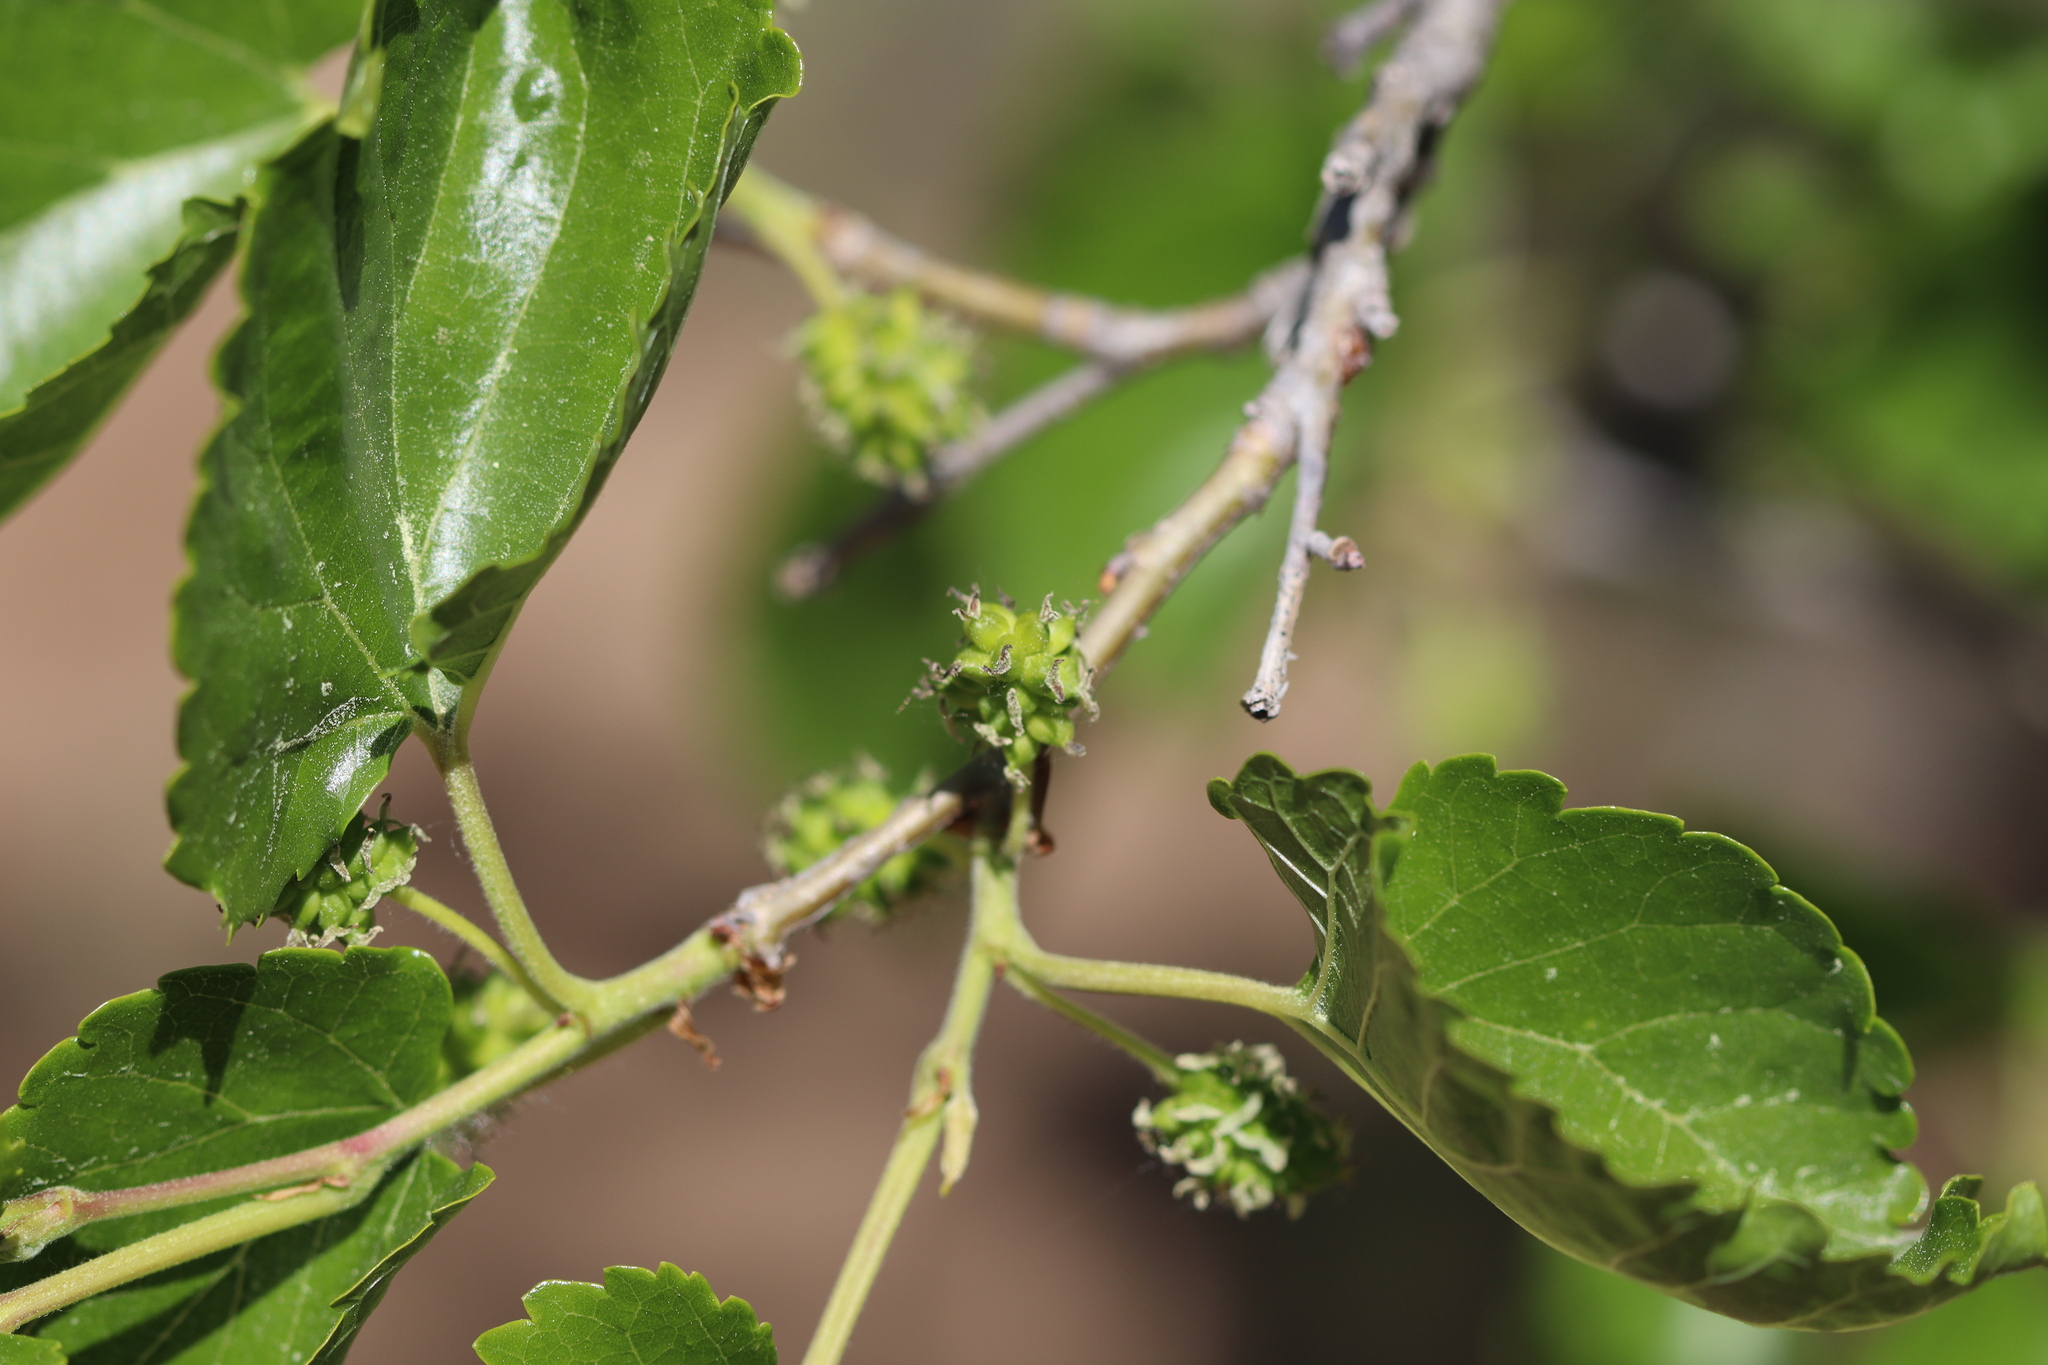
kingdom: Plantae
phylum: Tracheophyta
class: Magnoliopsida
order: Rosales
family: Moraceae
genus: Morus
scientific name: Morus alba
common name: White mulberry
